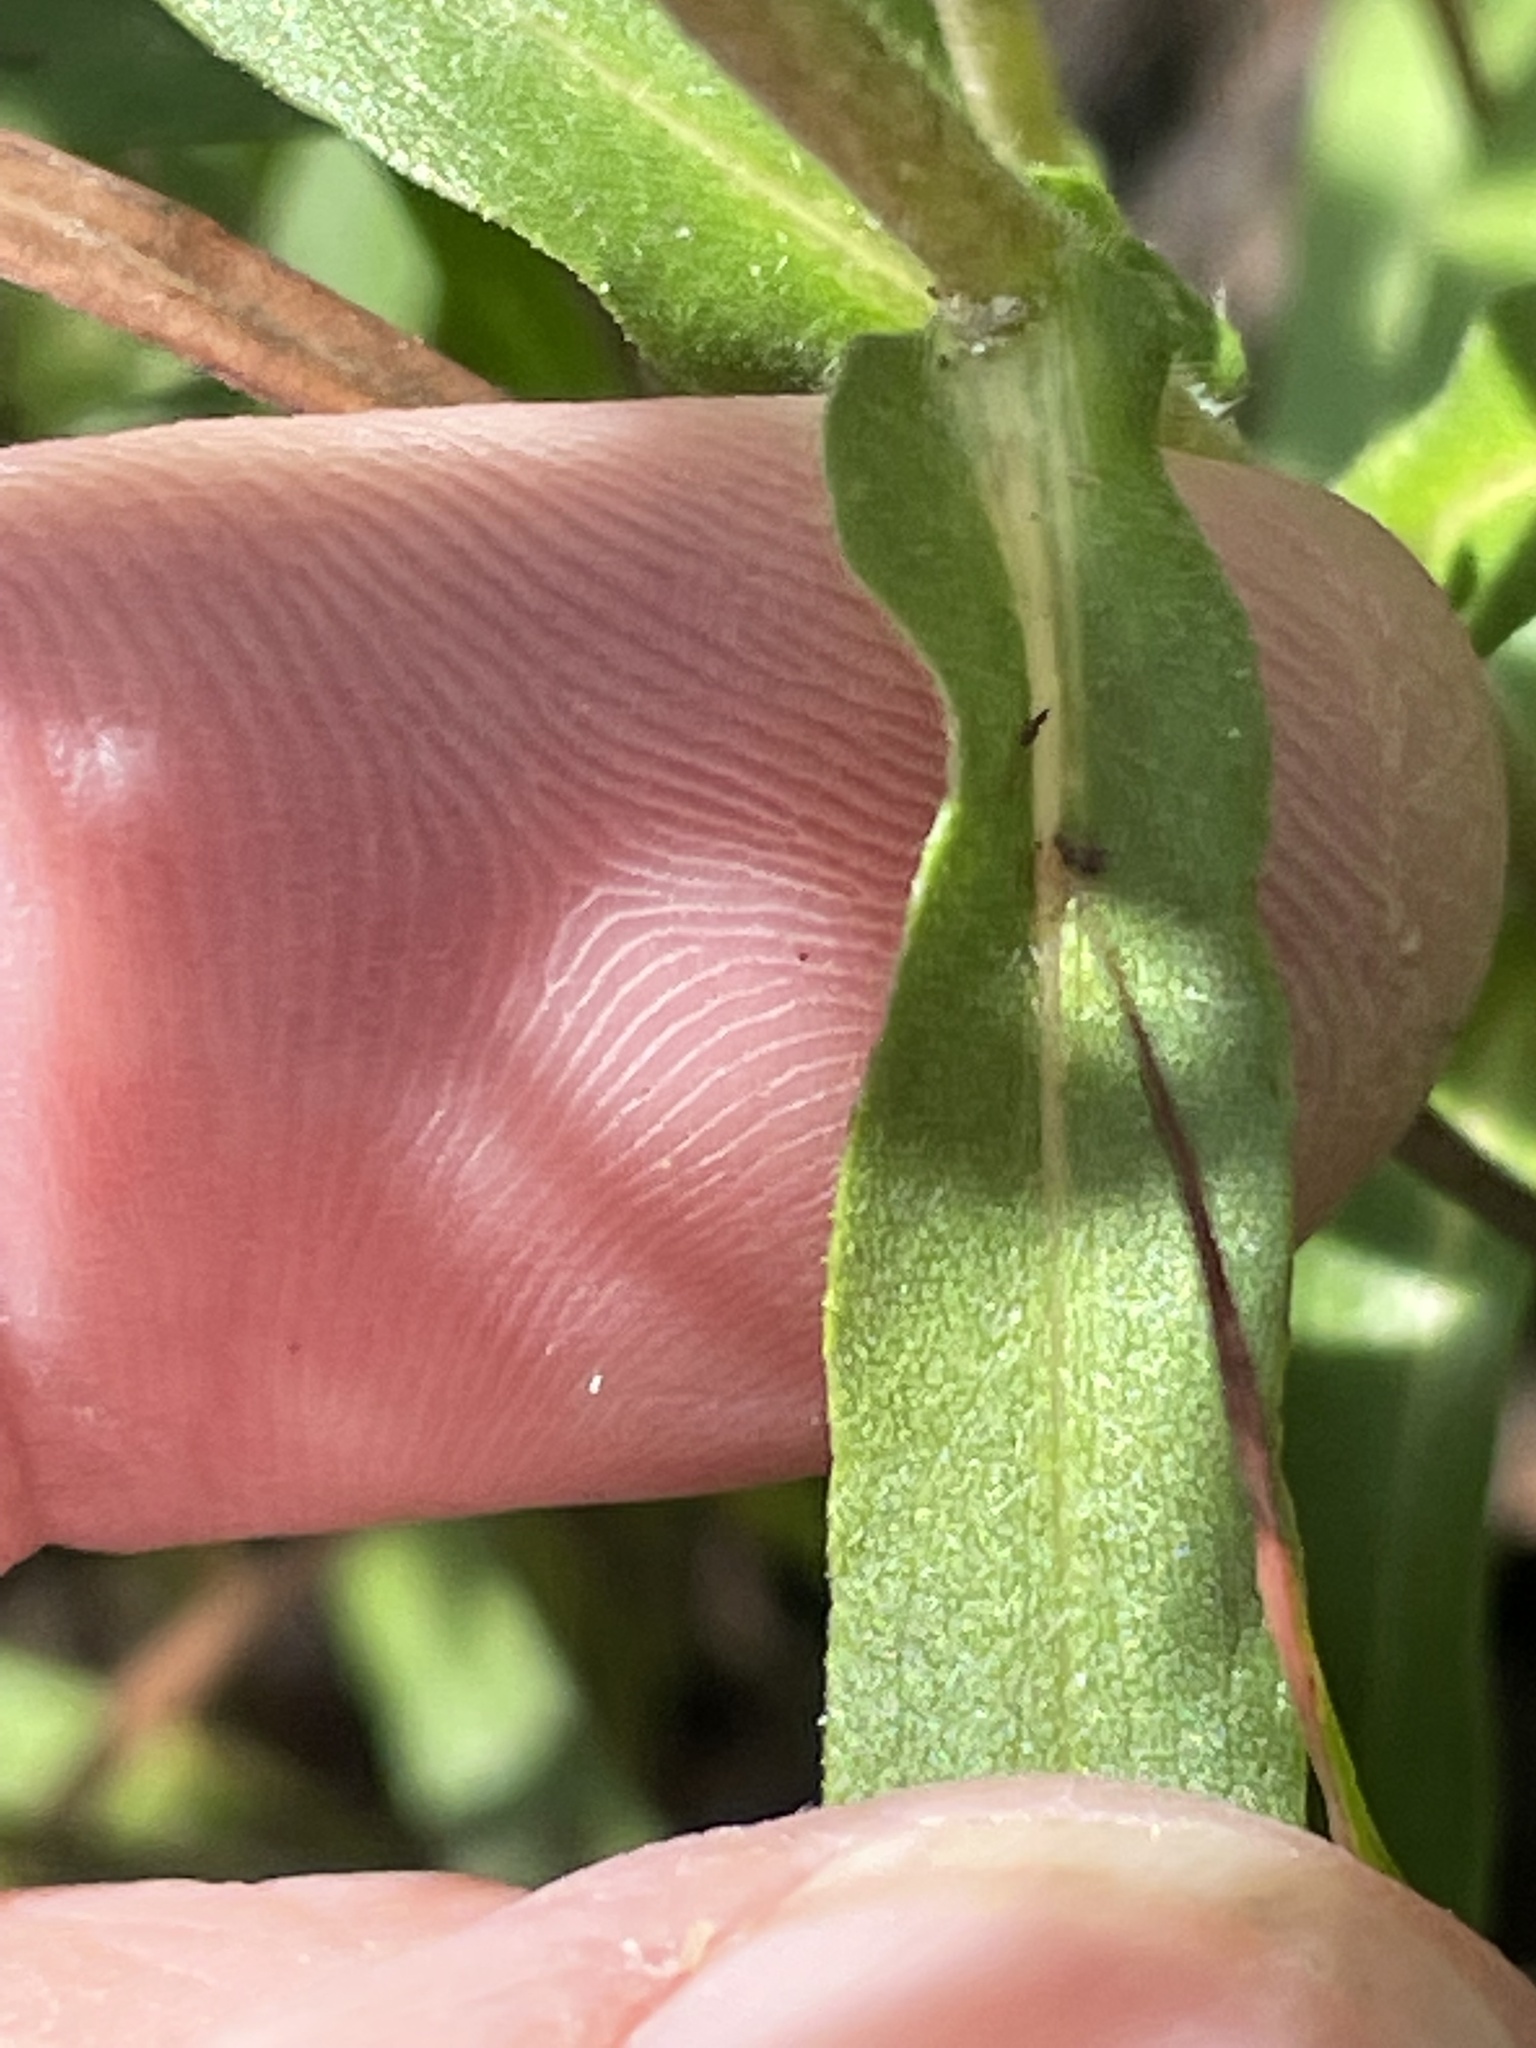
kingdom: Plantae
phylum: Tracheophyta
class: Magnoliopsida
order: Asterales
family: Asteraceae
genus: Eurybia
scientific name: Eurybia compacta
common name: Slender aster
